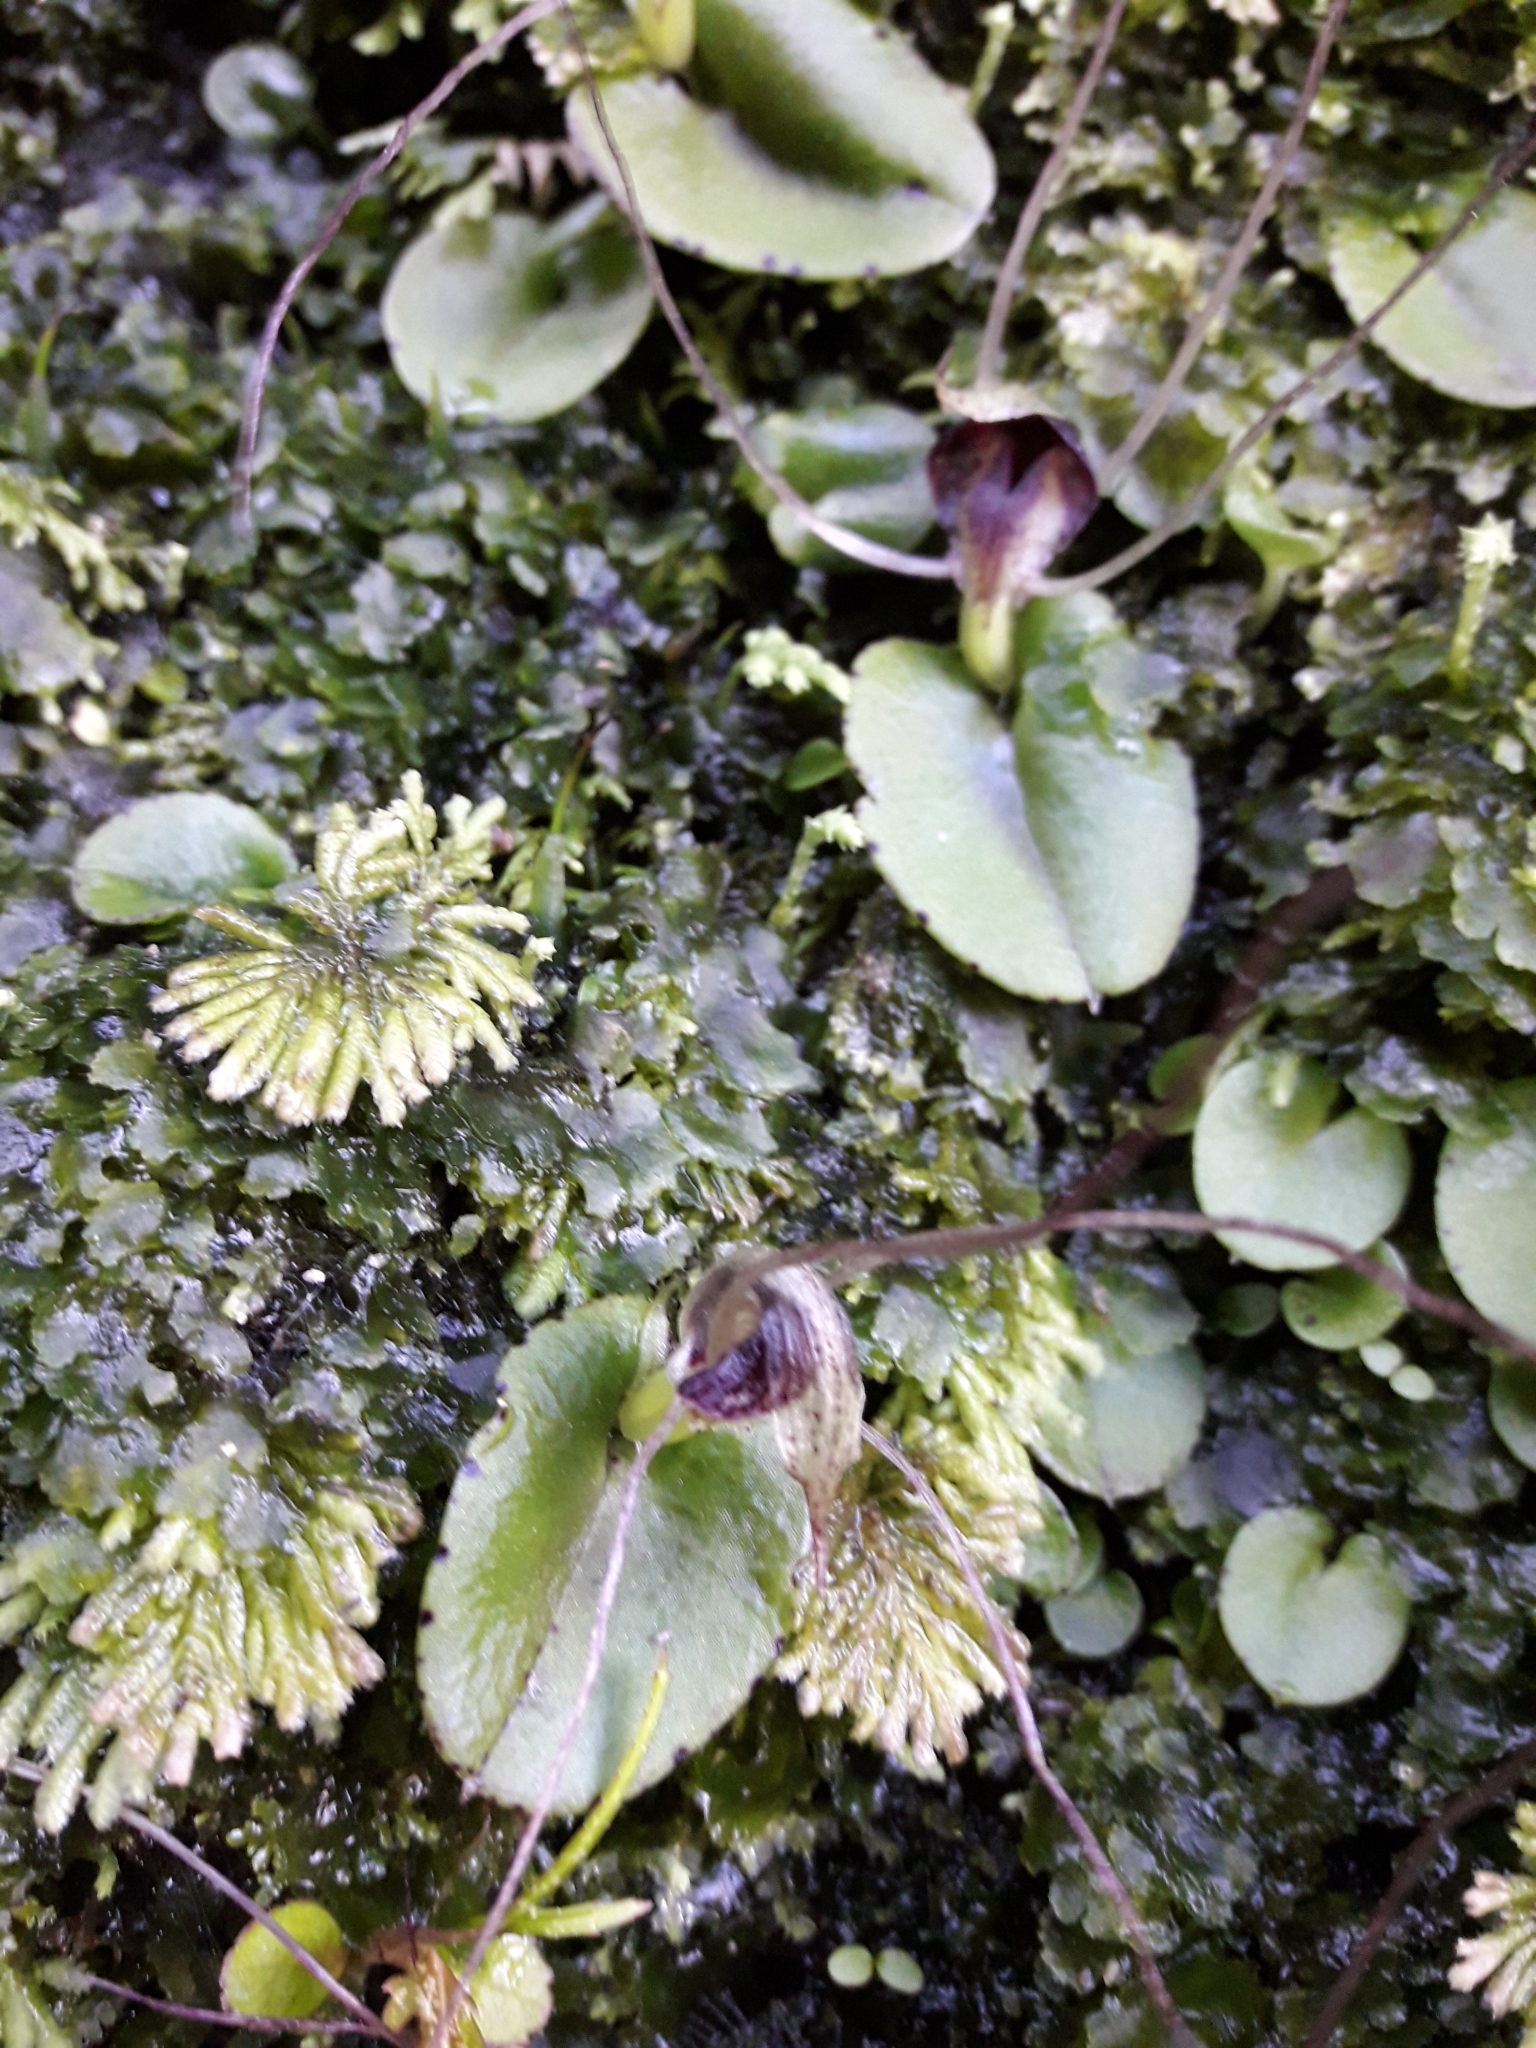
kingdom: Plantae
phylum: Tracheophyta
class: Liliopsida
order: Asparagales
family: Orchidaceae
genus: Corybas
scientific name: Corybas hatchii
